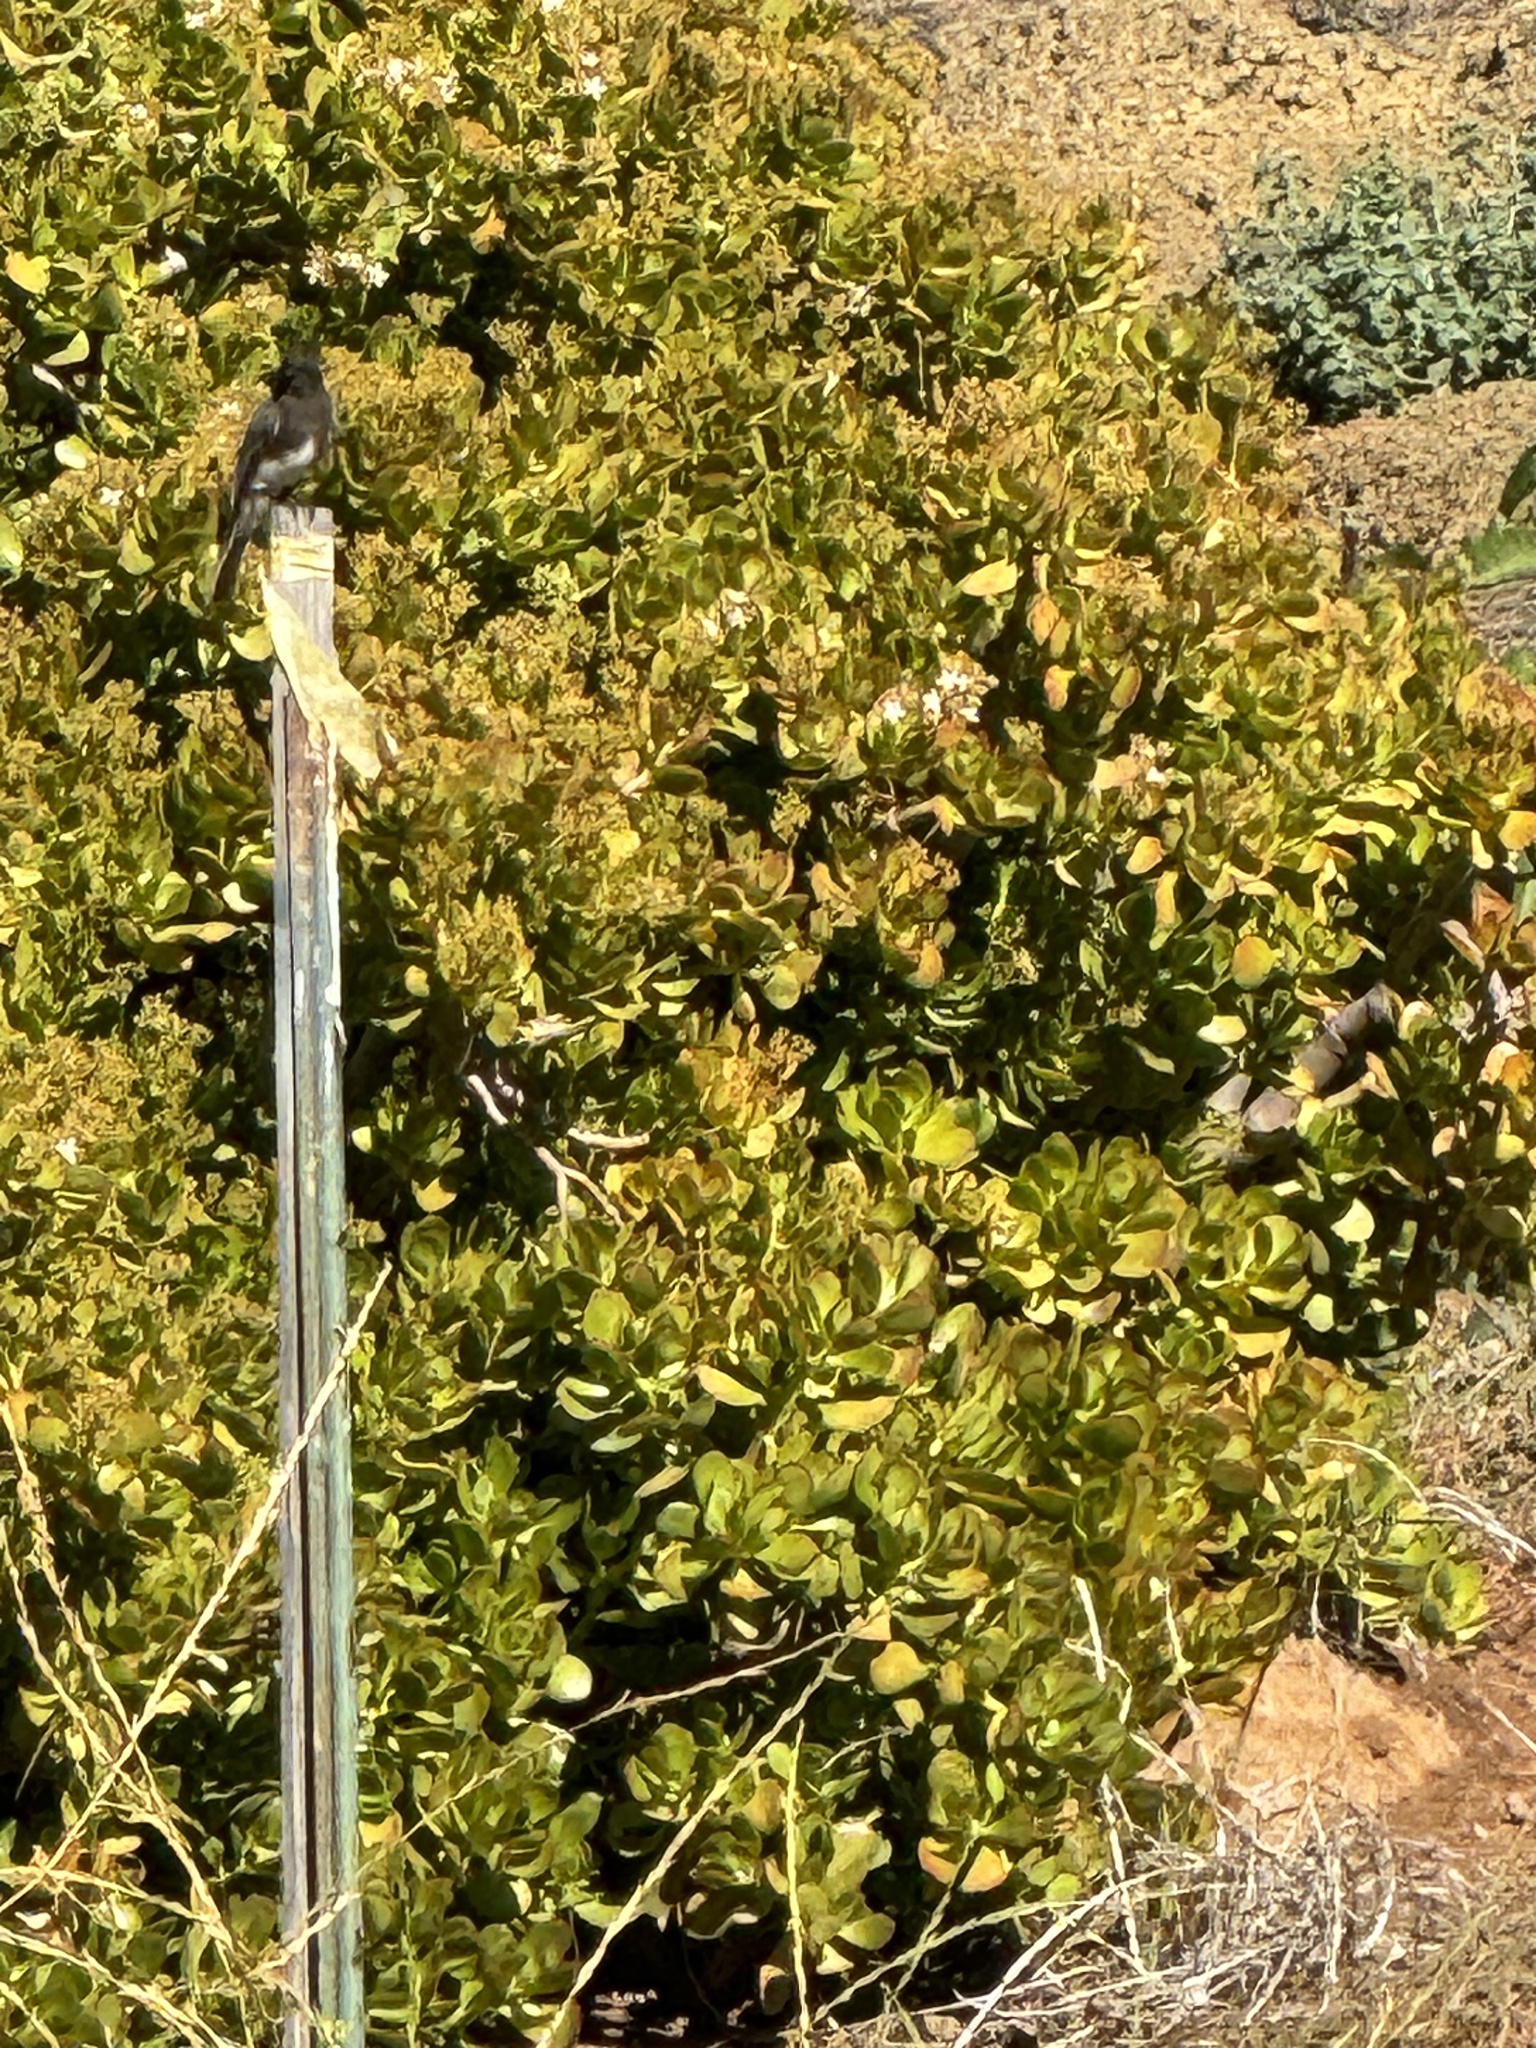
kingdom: Animalia
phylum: Chordata
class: Aves
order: Passeriformes
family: Tyrannidae
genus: Sayornis
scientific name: Sayornis nigricans
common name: Black phoebe
